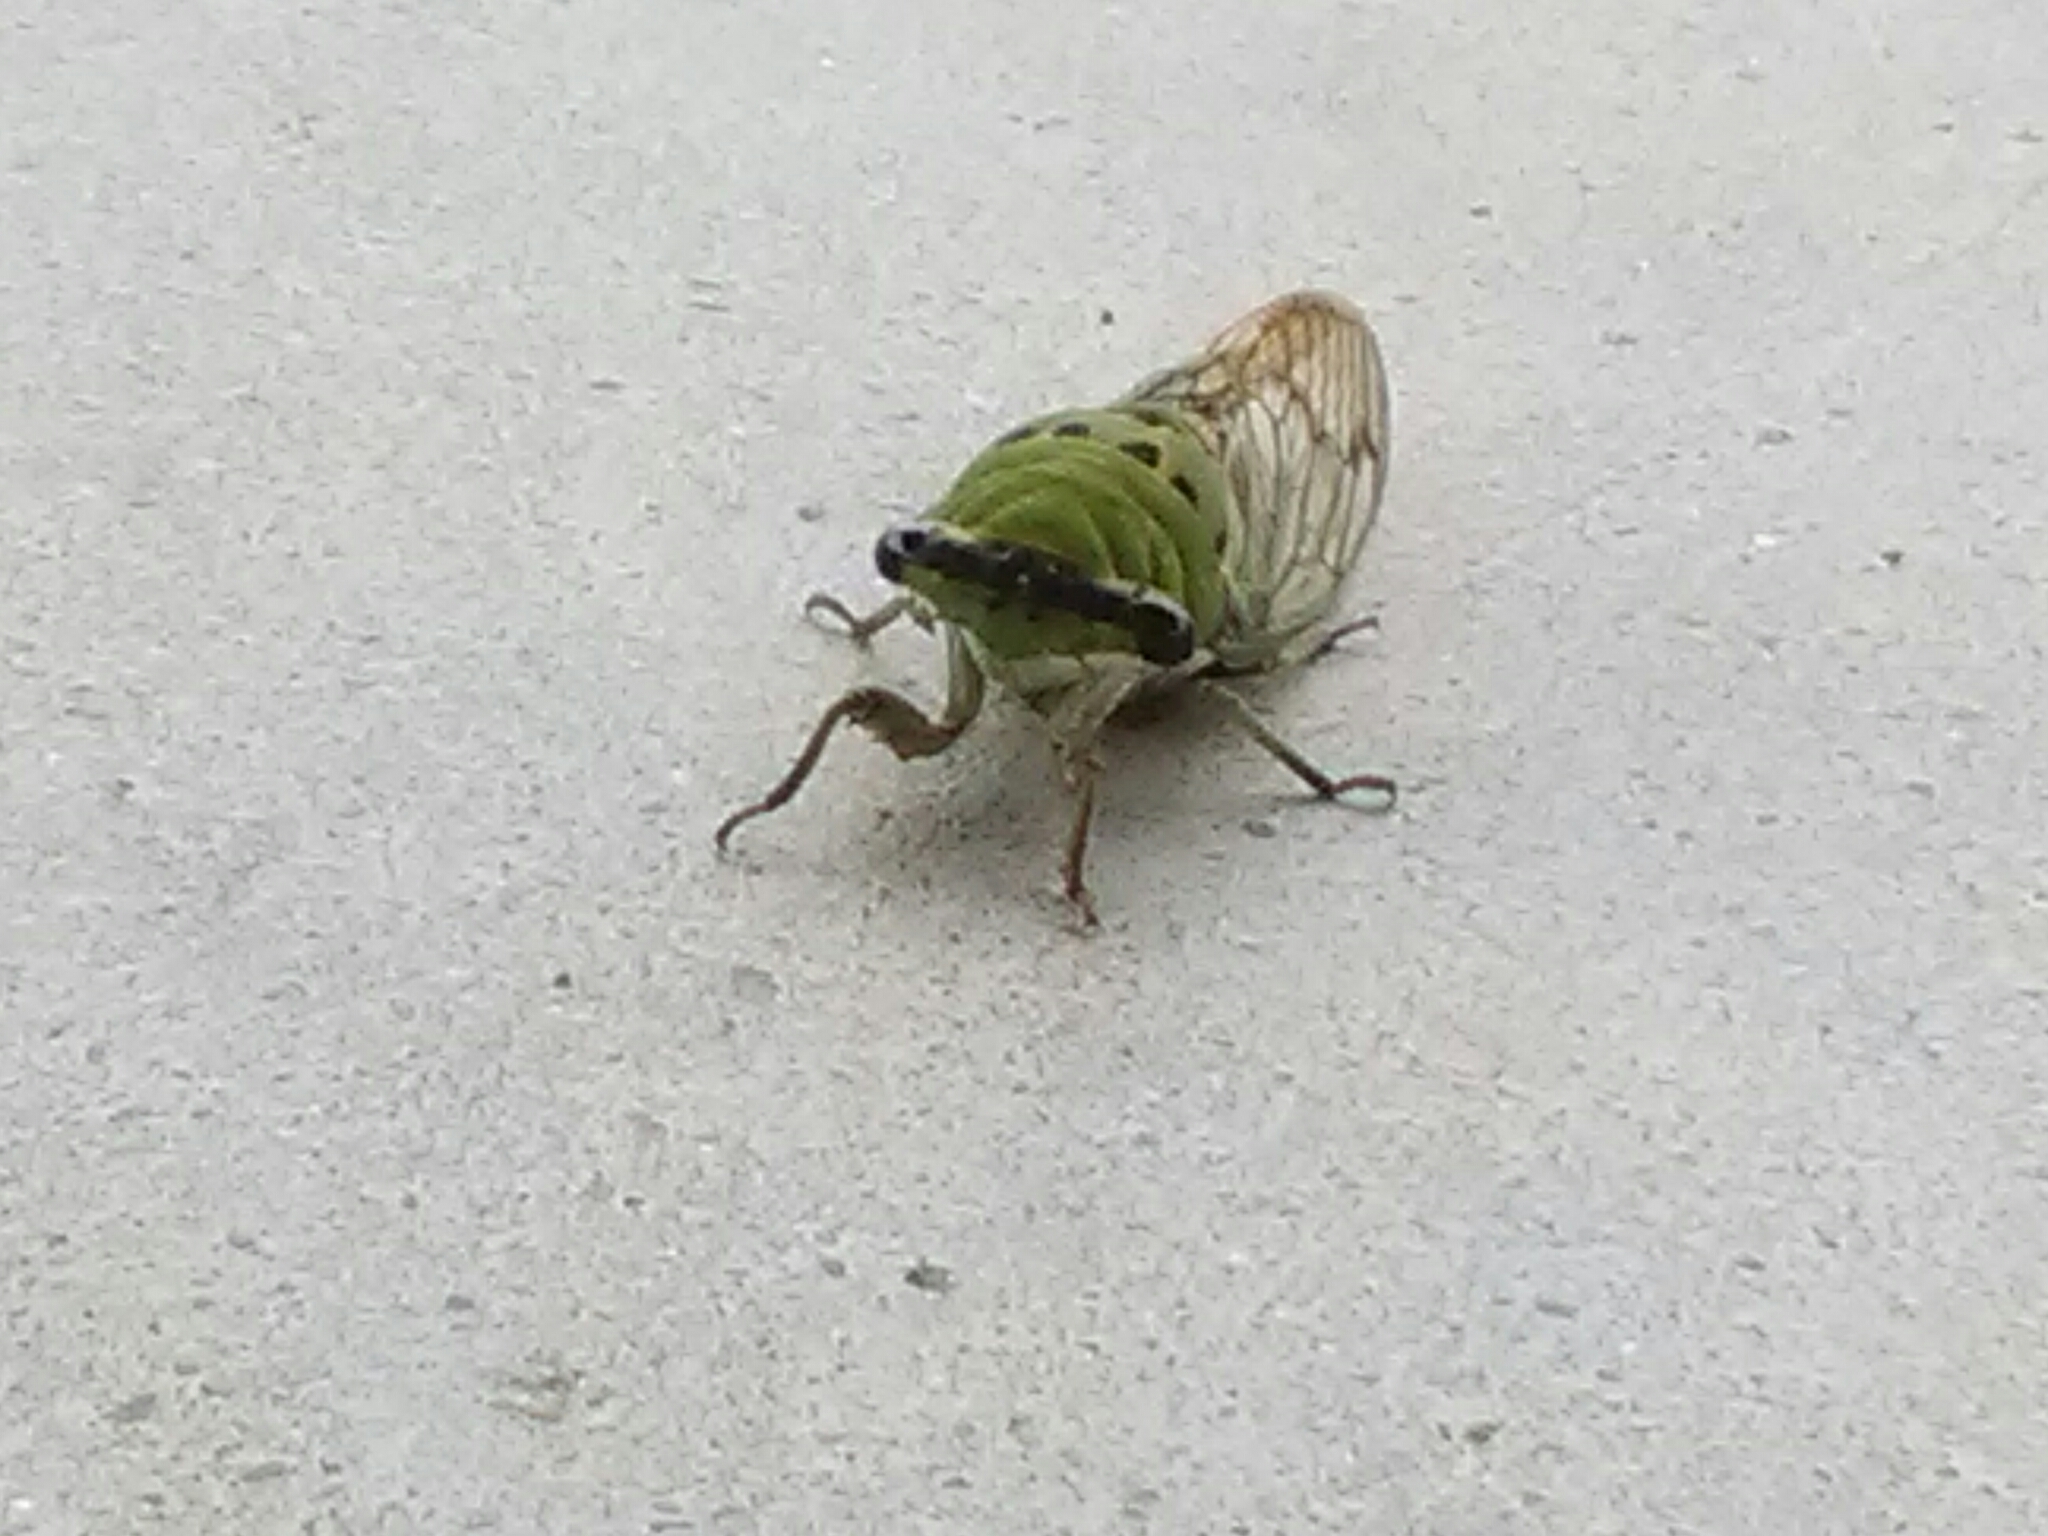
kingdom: Animalia
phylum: Arthropoda
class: Insecta
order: Hemiptera
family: Cicadidae
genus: Neotibicen
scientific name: Neotibicen superbus
